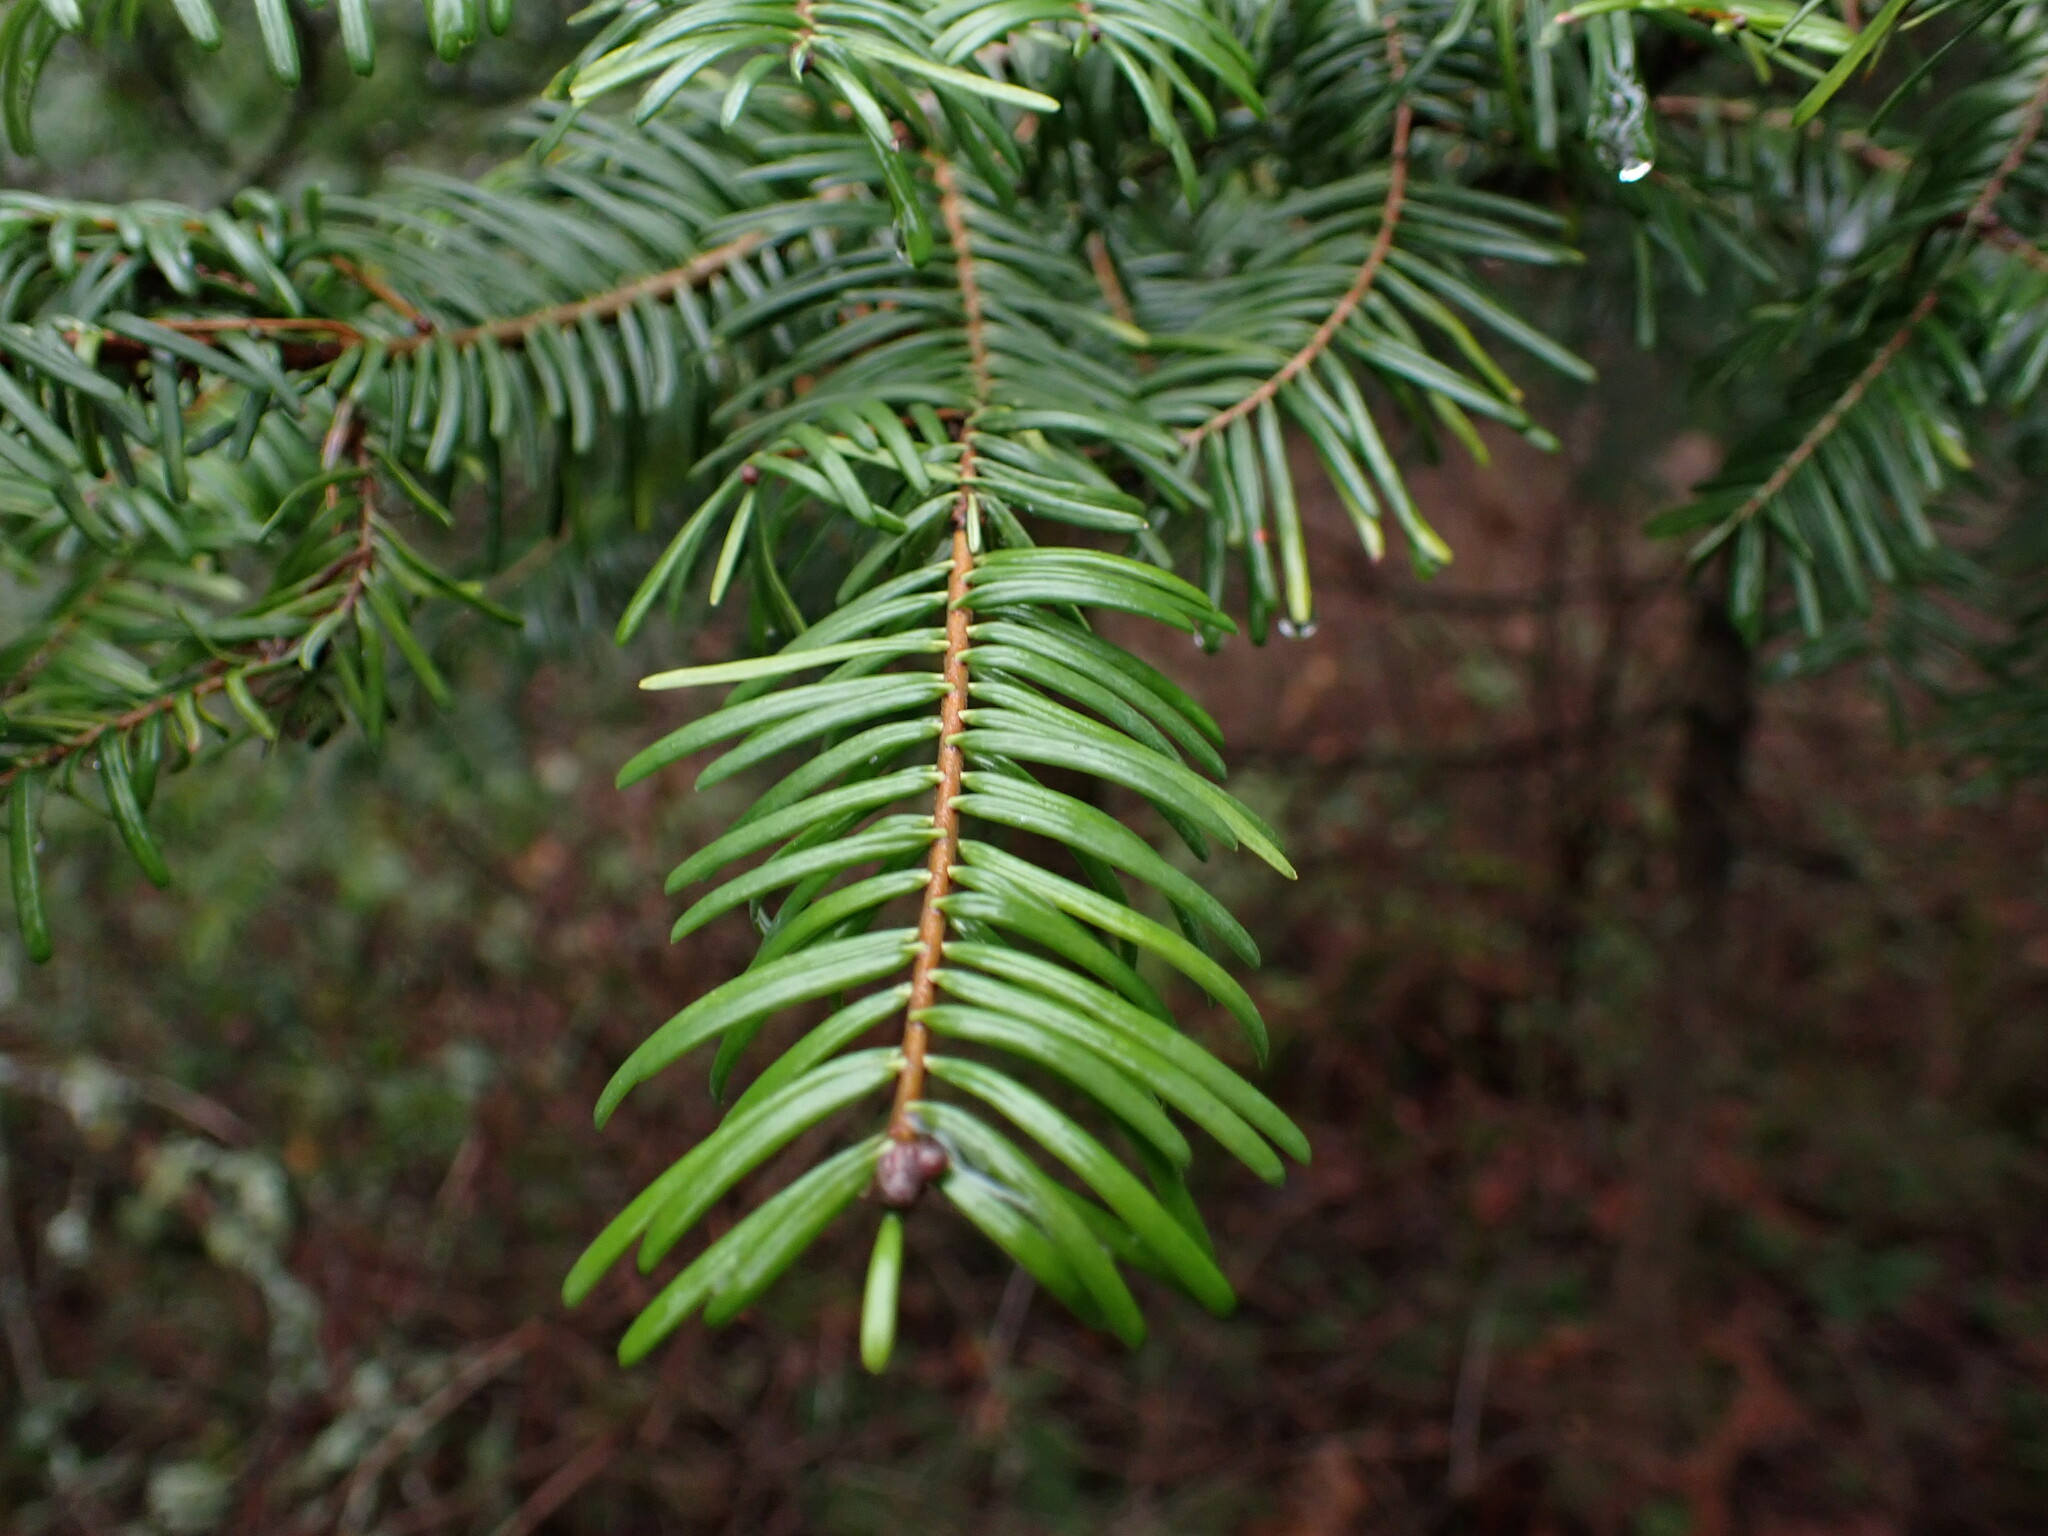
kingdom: Plantae
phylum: Tracheophyta
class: Pinopsida
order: Pinales
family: Pinaceae
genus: Abies
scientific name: Abies grandis
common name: Giant fir
